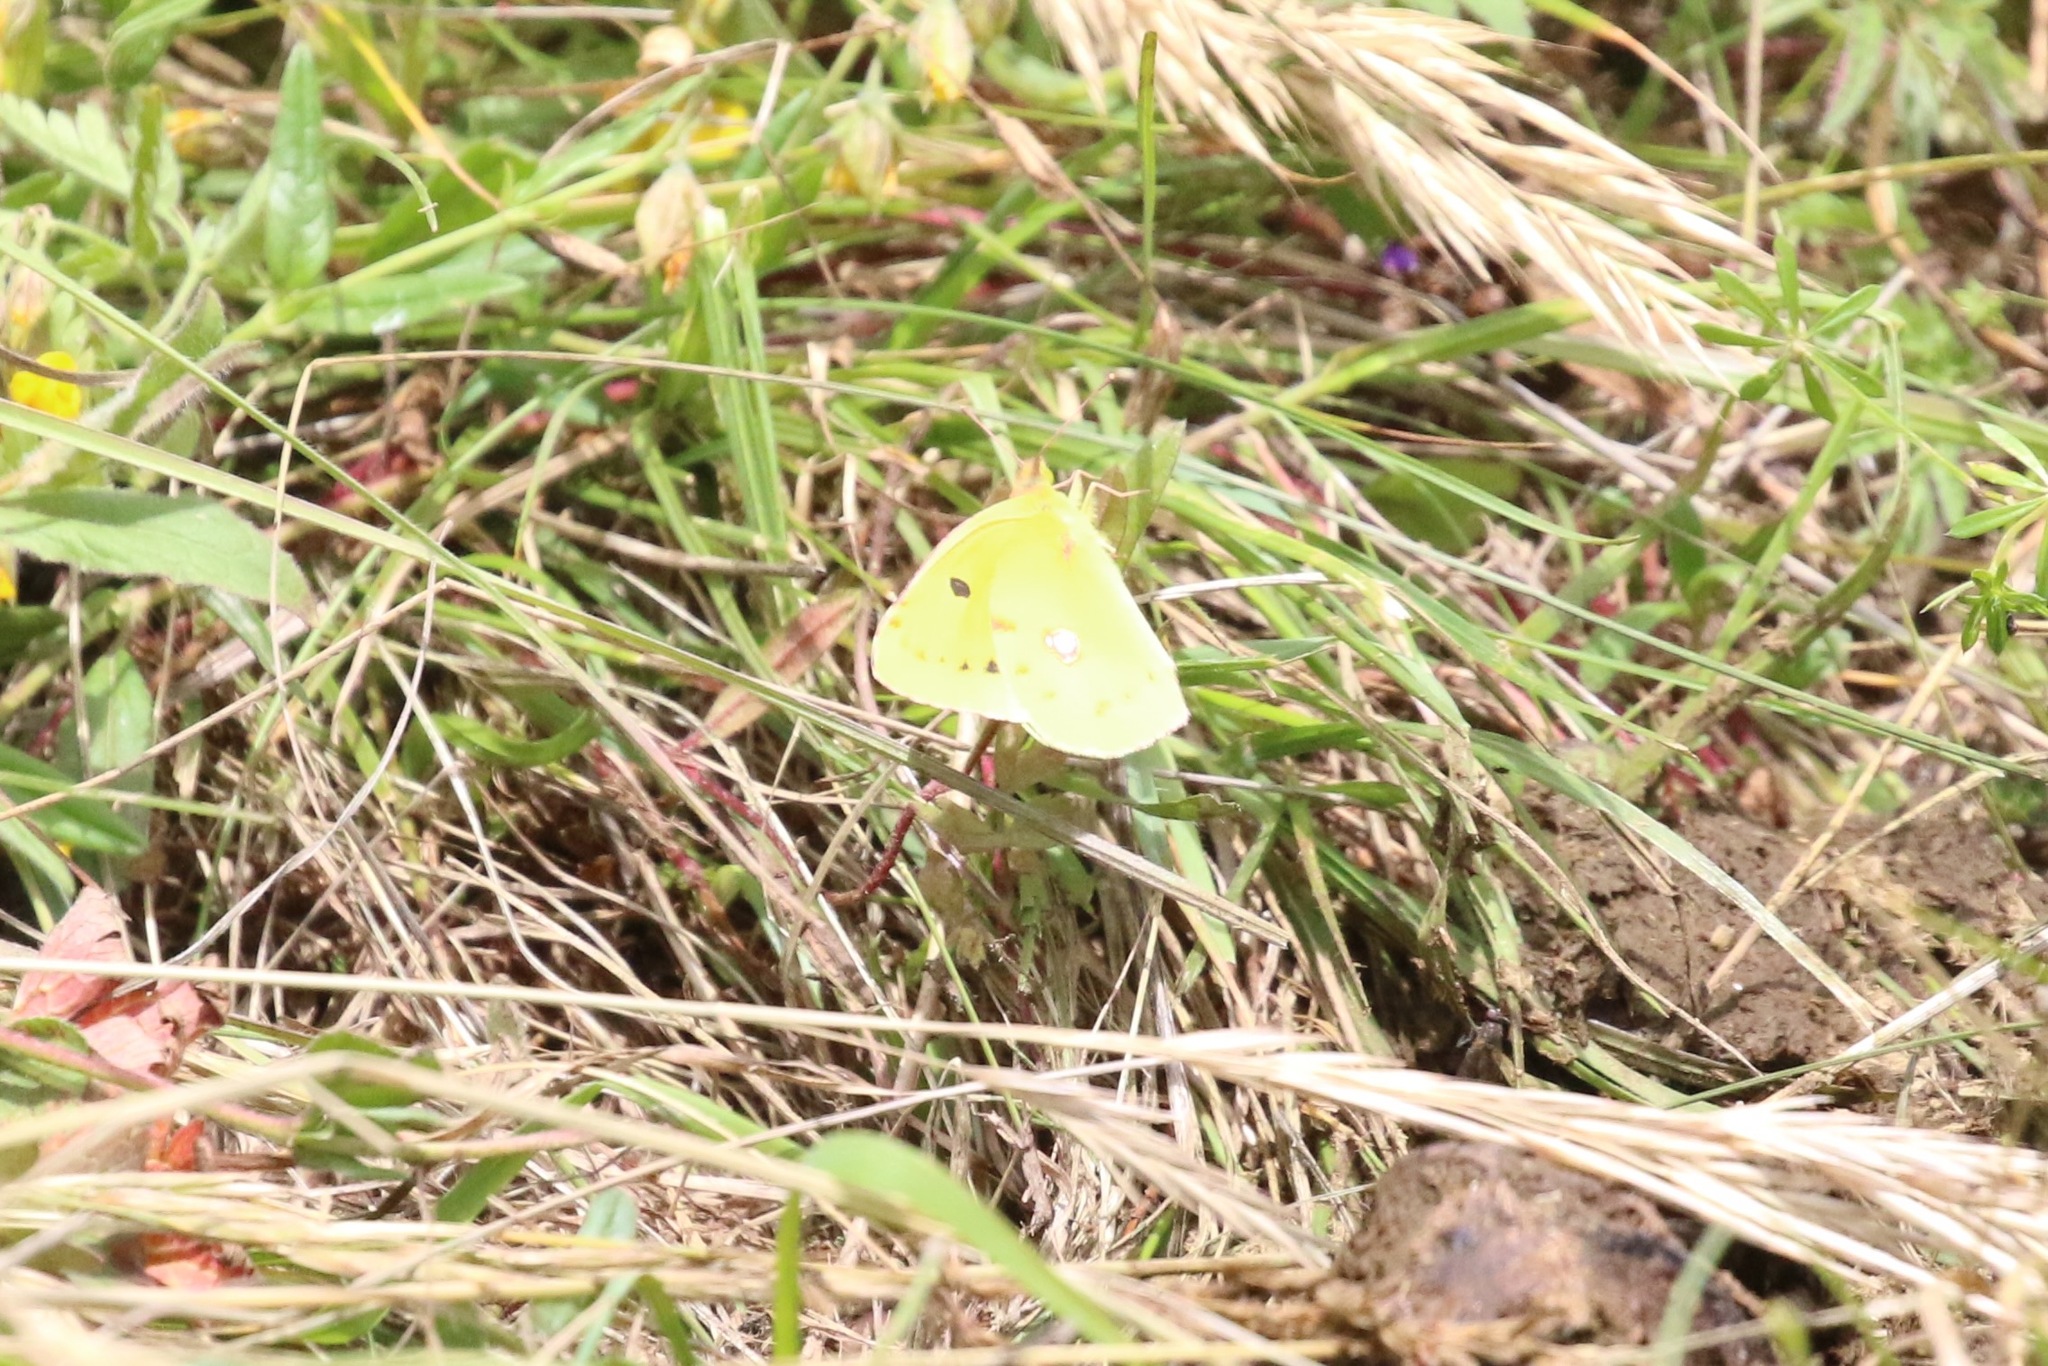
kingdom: Animalia
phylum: Arthropoda
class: Insecta
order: Lepidoptera
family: Pieridae
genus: Colias
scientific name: Colias croceus
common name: Clouded yellow
